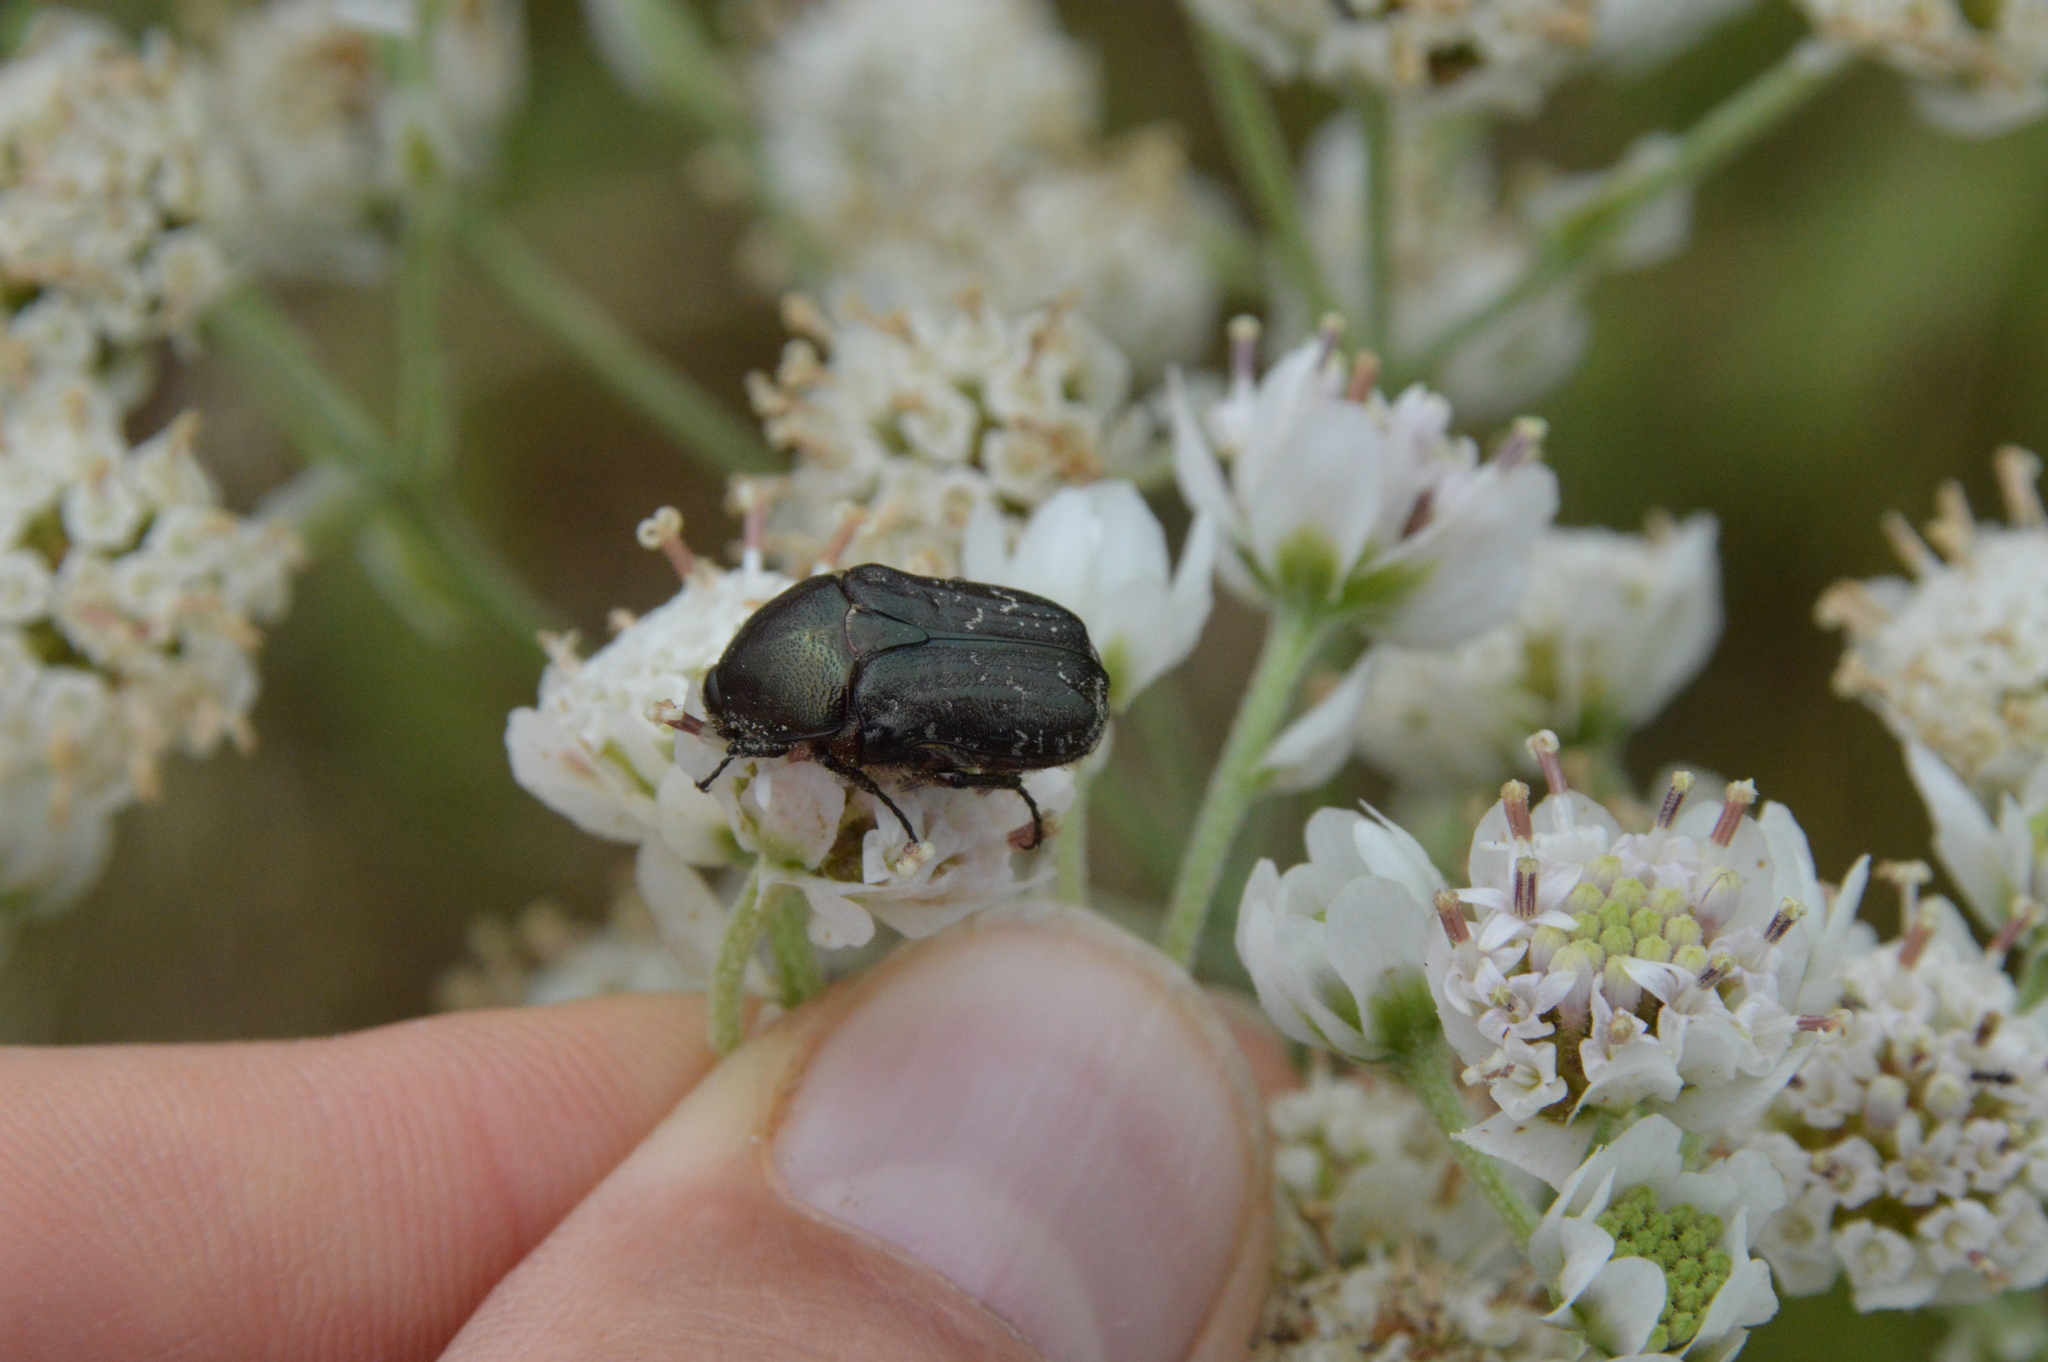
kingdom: Animalia
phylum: Arthropoda
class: Insecta
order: Coleoptera
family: Scarabaeidae
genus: Euphoria
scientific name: Euphoria sepulcralis
